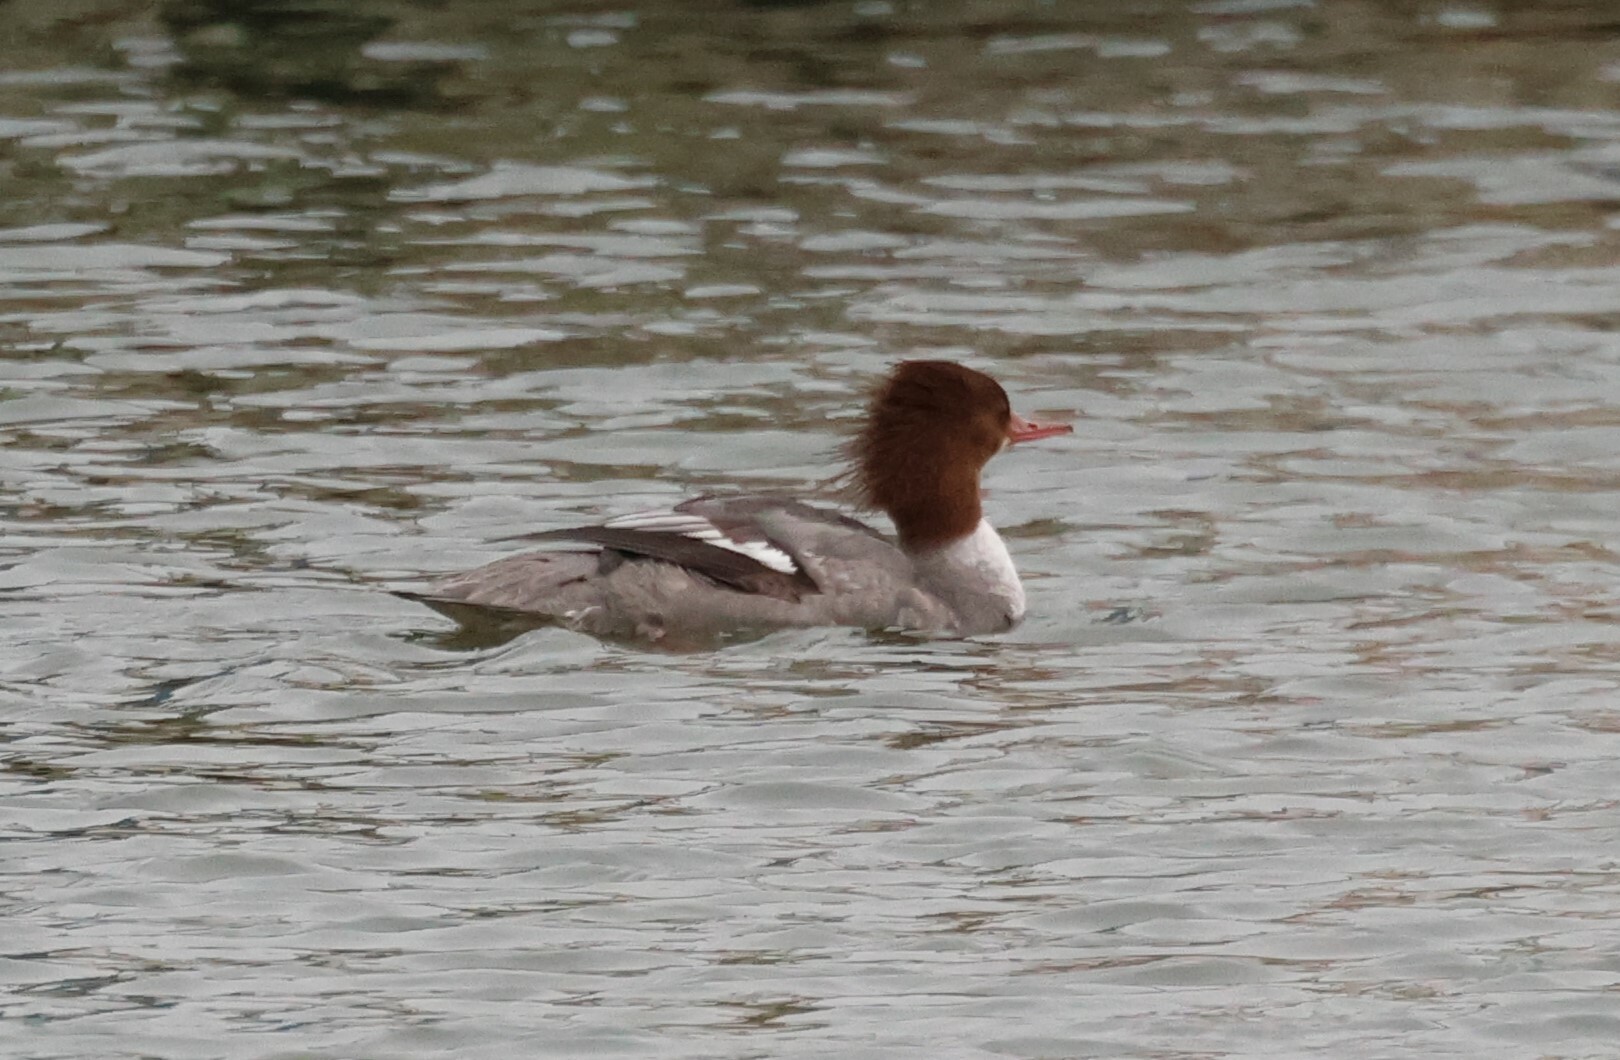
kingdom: Animalia
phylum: Chordata
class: Aves
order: Anseriformes
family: Anatidae
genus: Mergus
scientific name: Mergus merganser
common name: Common merganser
